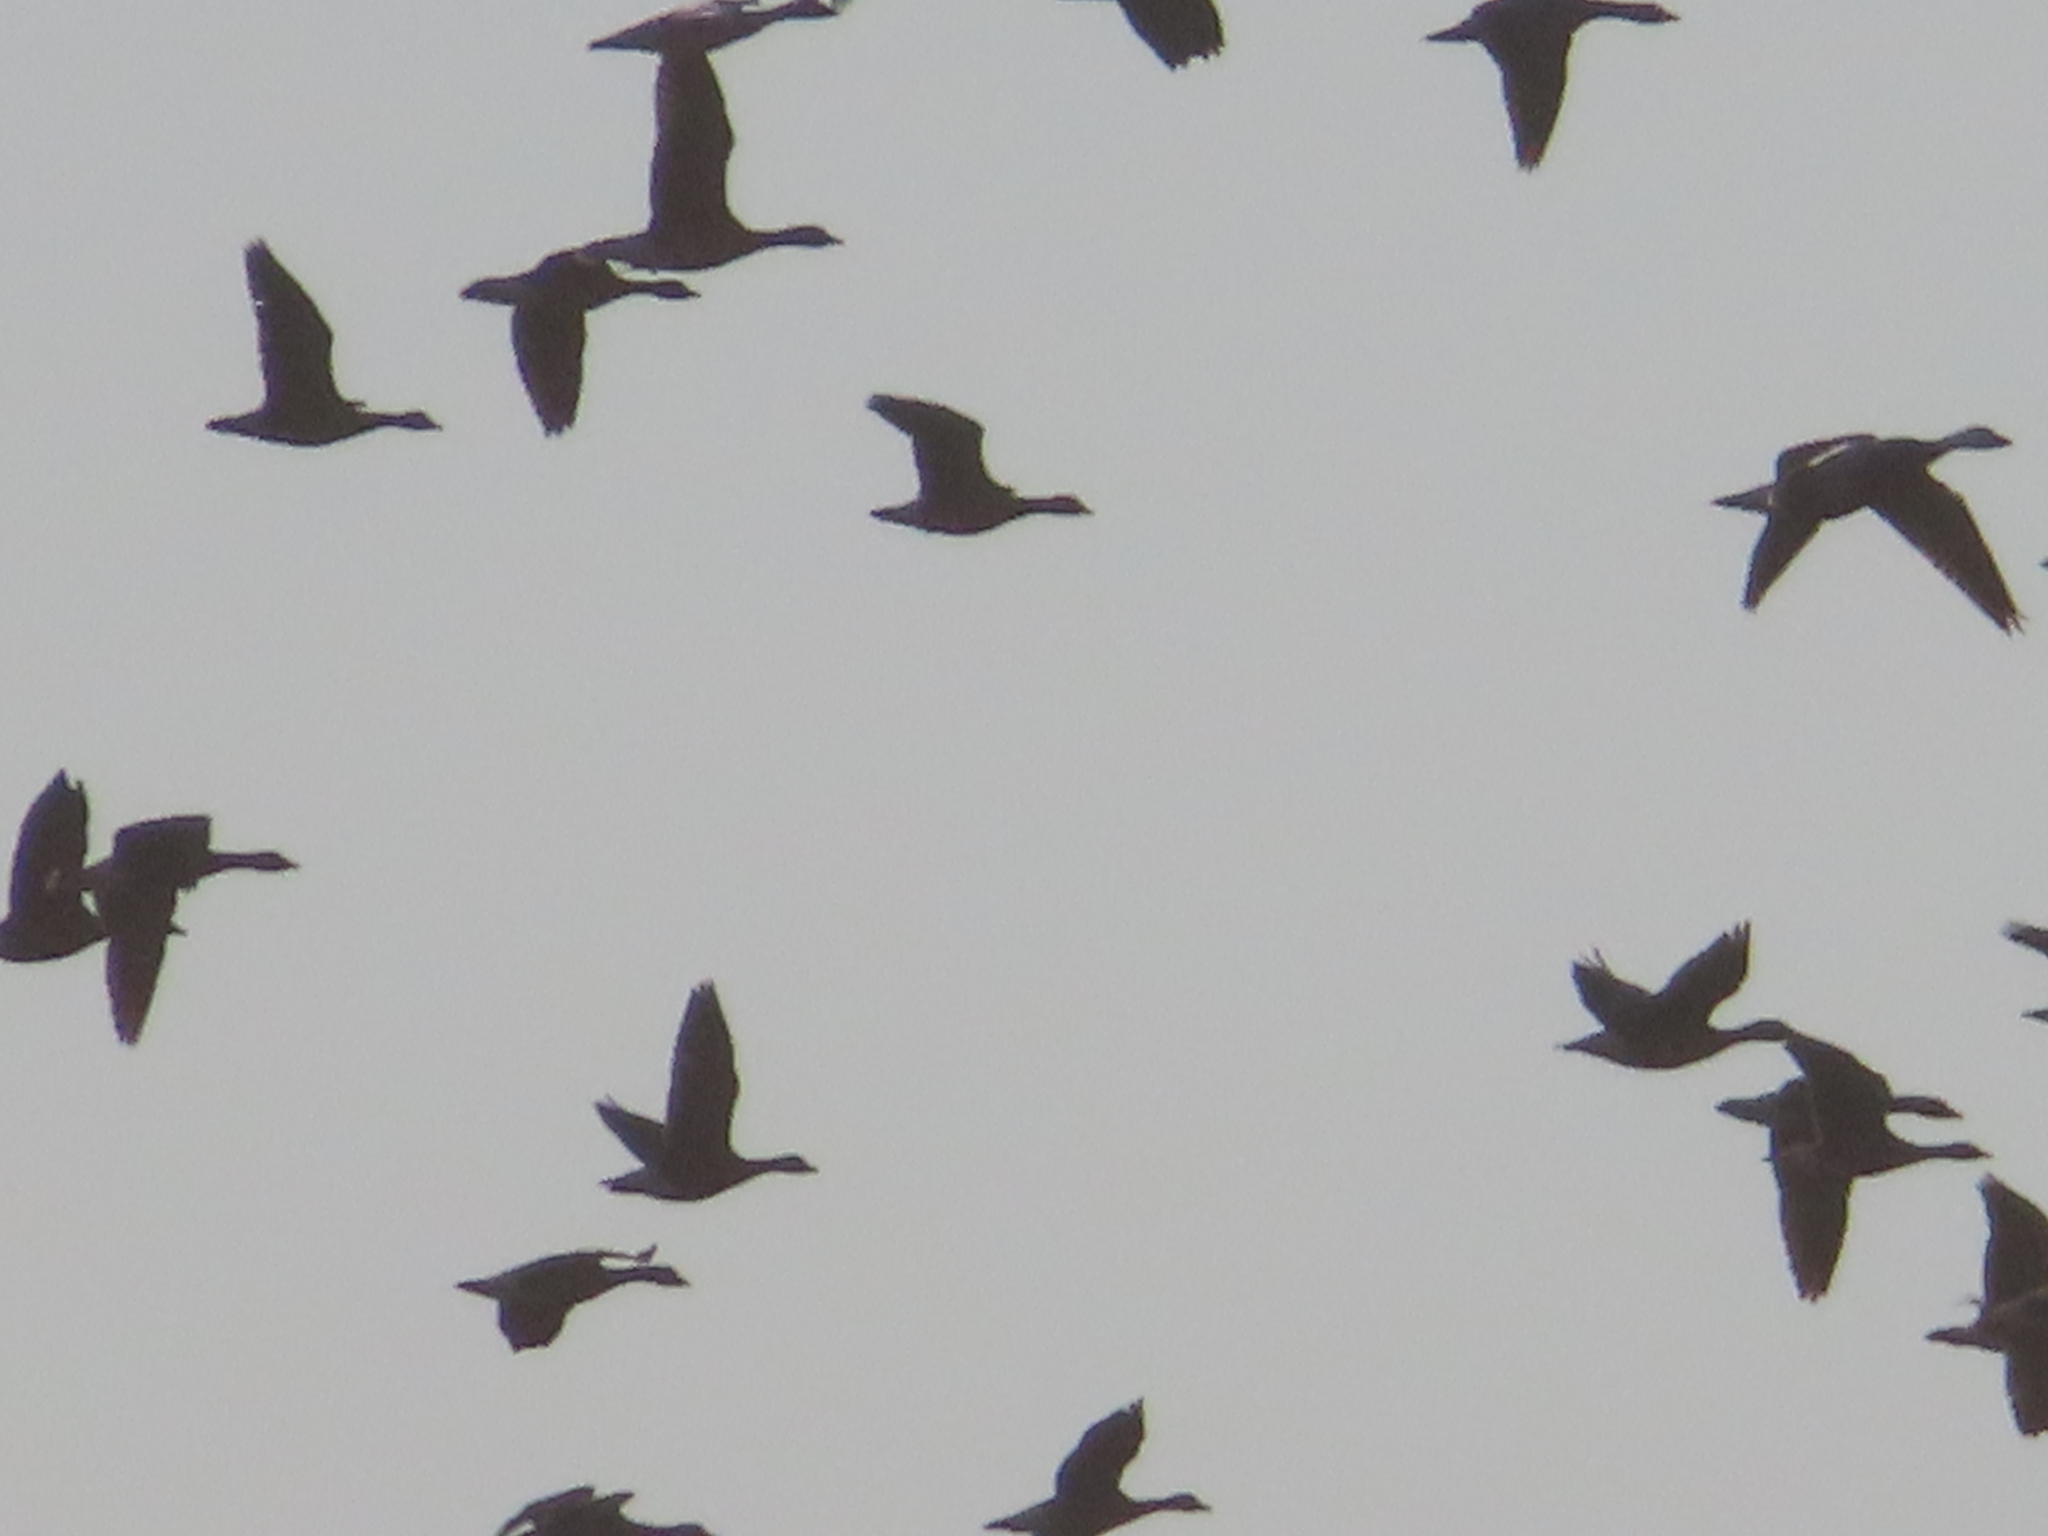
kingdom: Animalia
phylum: Chordata
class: Aves
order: Anseriformes
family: Anatidae
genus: Anser
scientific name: Anser caerulescens
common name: Snow goose
